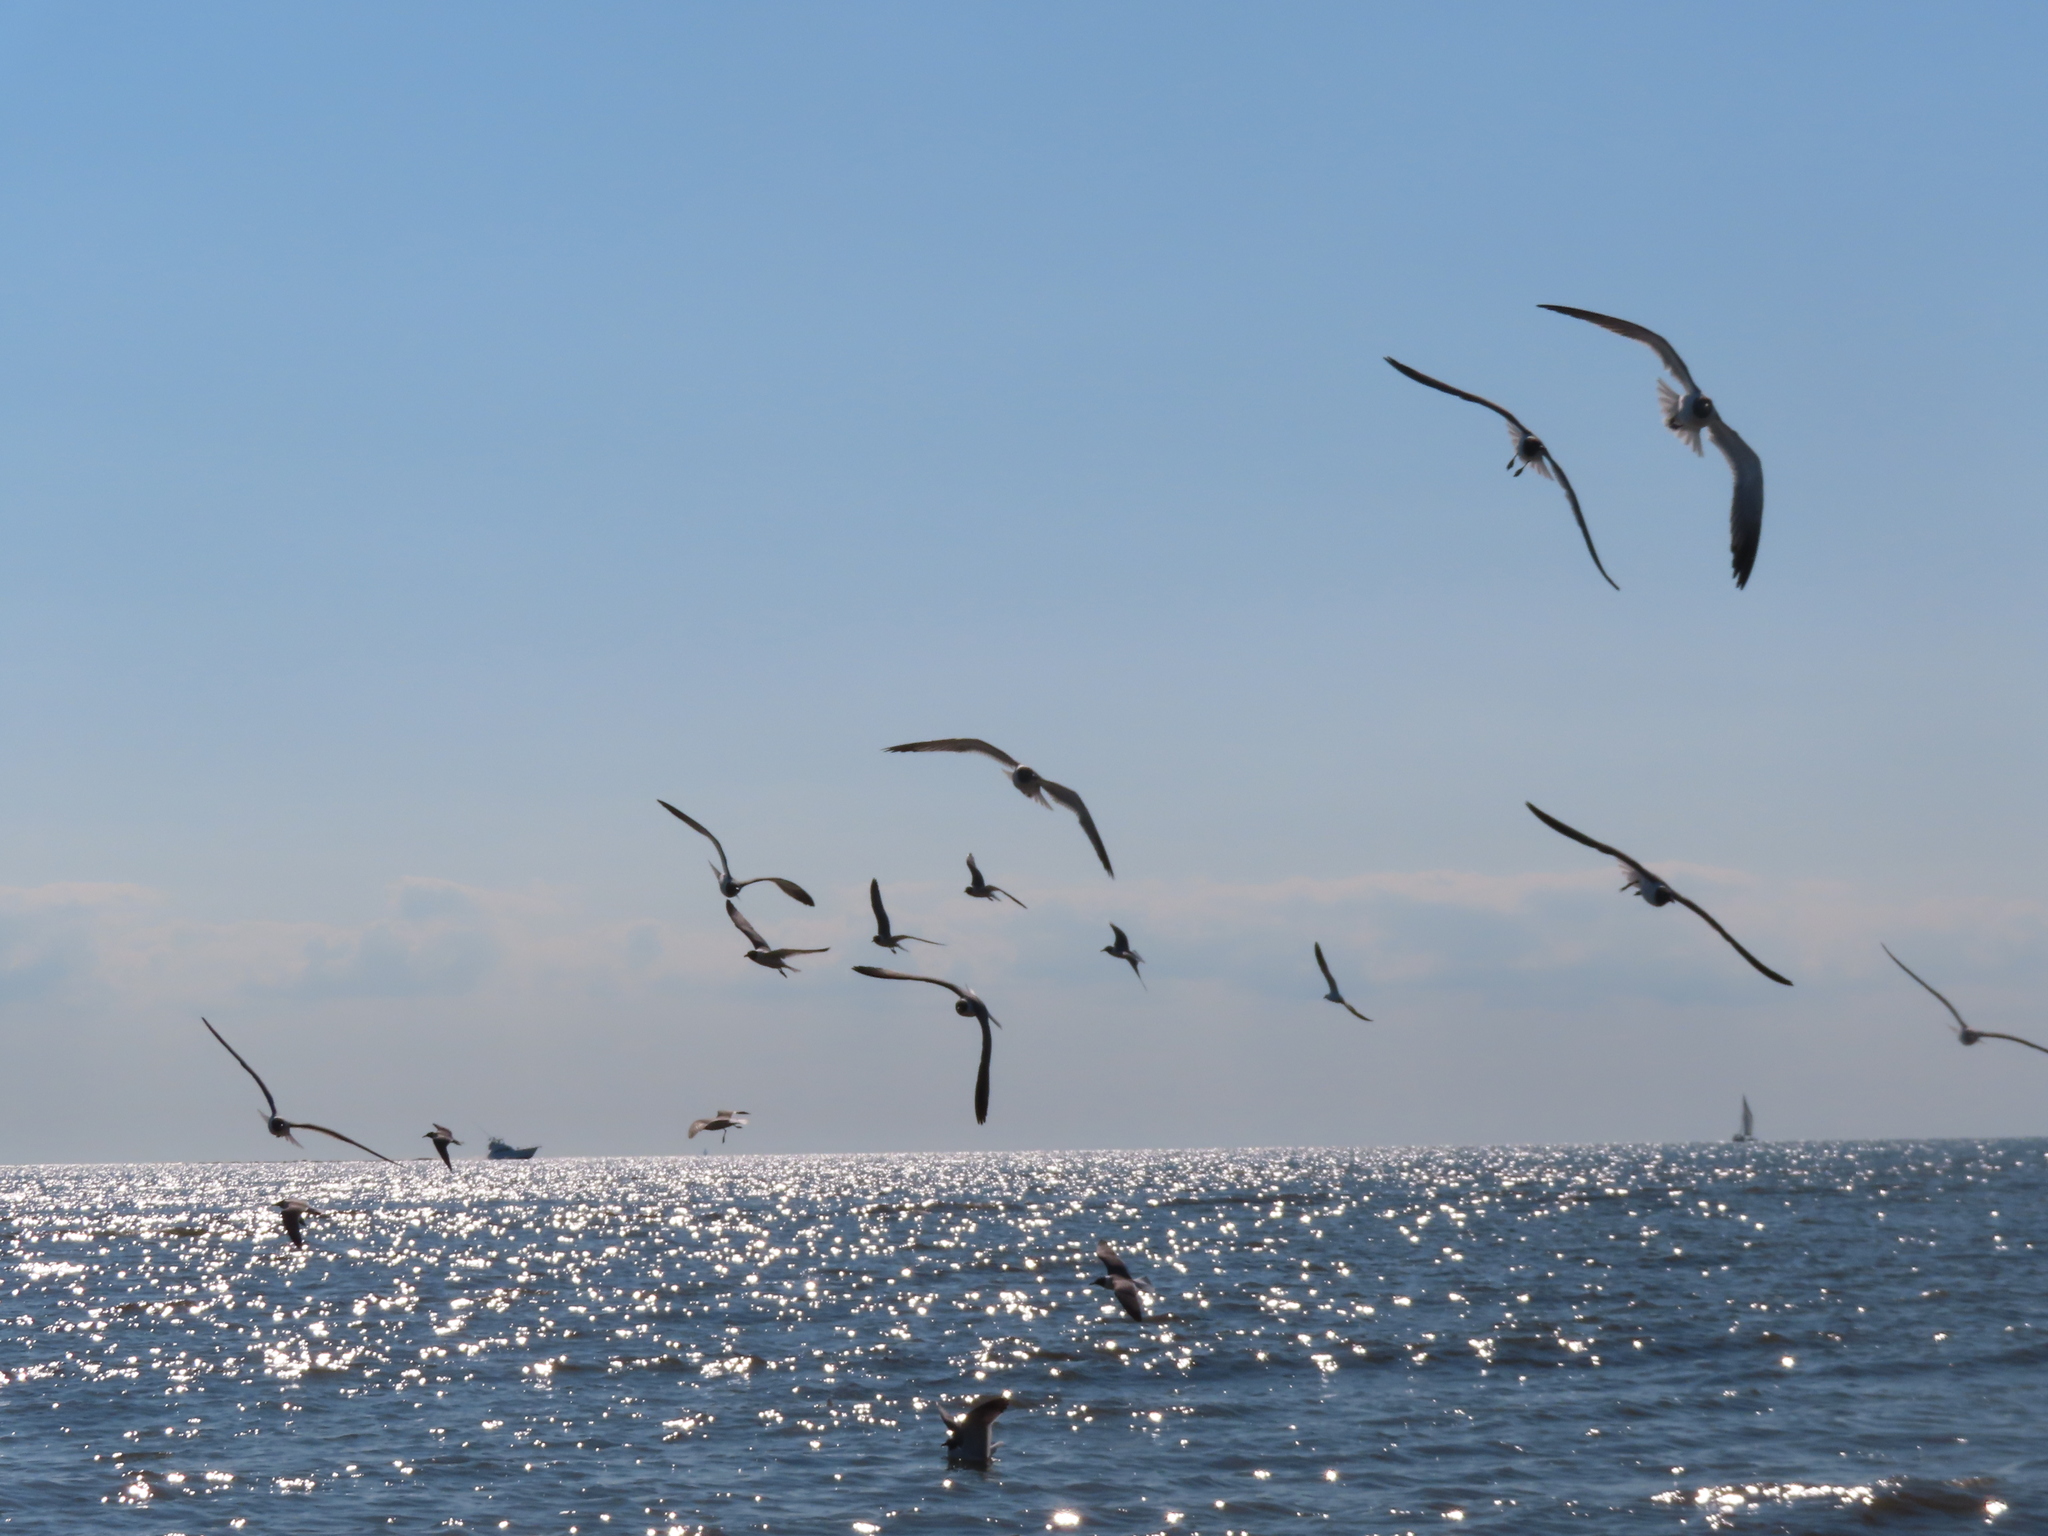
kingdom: Animalia
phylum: Chordata
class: Aves
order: Charadriiformes
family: Laridae
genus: Leucophaeus
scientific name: Leucophaeus atricilla
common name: Laughing gull
